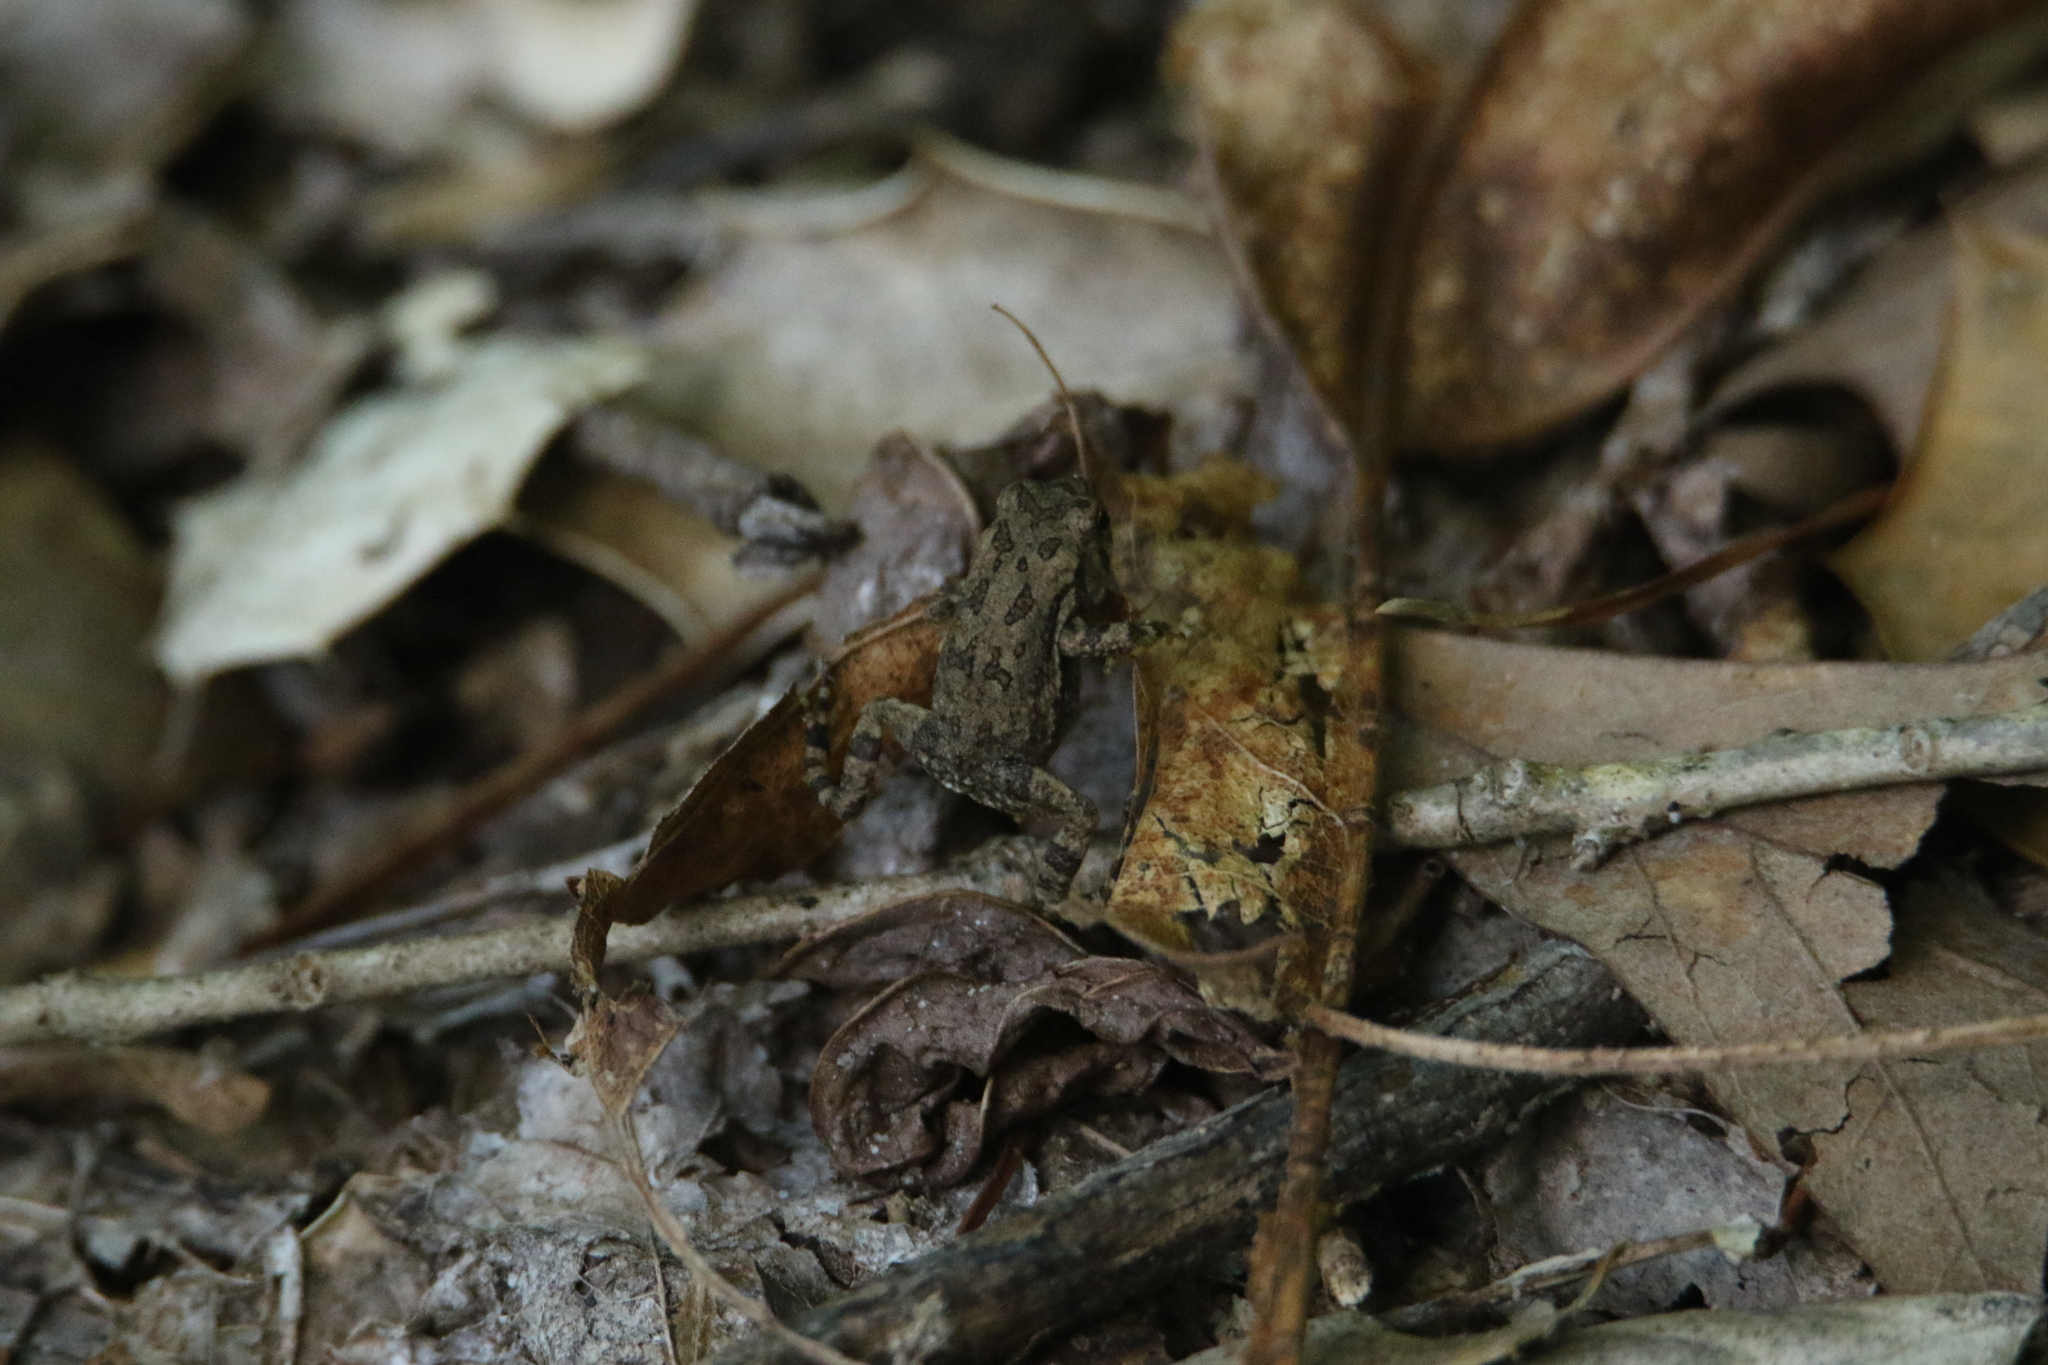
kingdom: Animalia
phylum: Chordata
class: Amphibia
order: Anura
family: Bufonidae
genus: Anaxyrus
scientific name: Anaxyrus fowleri
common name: Fowler's toad
